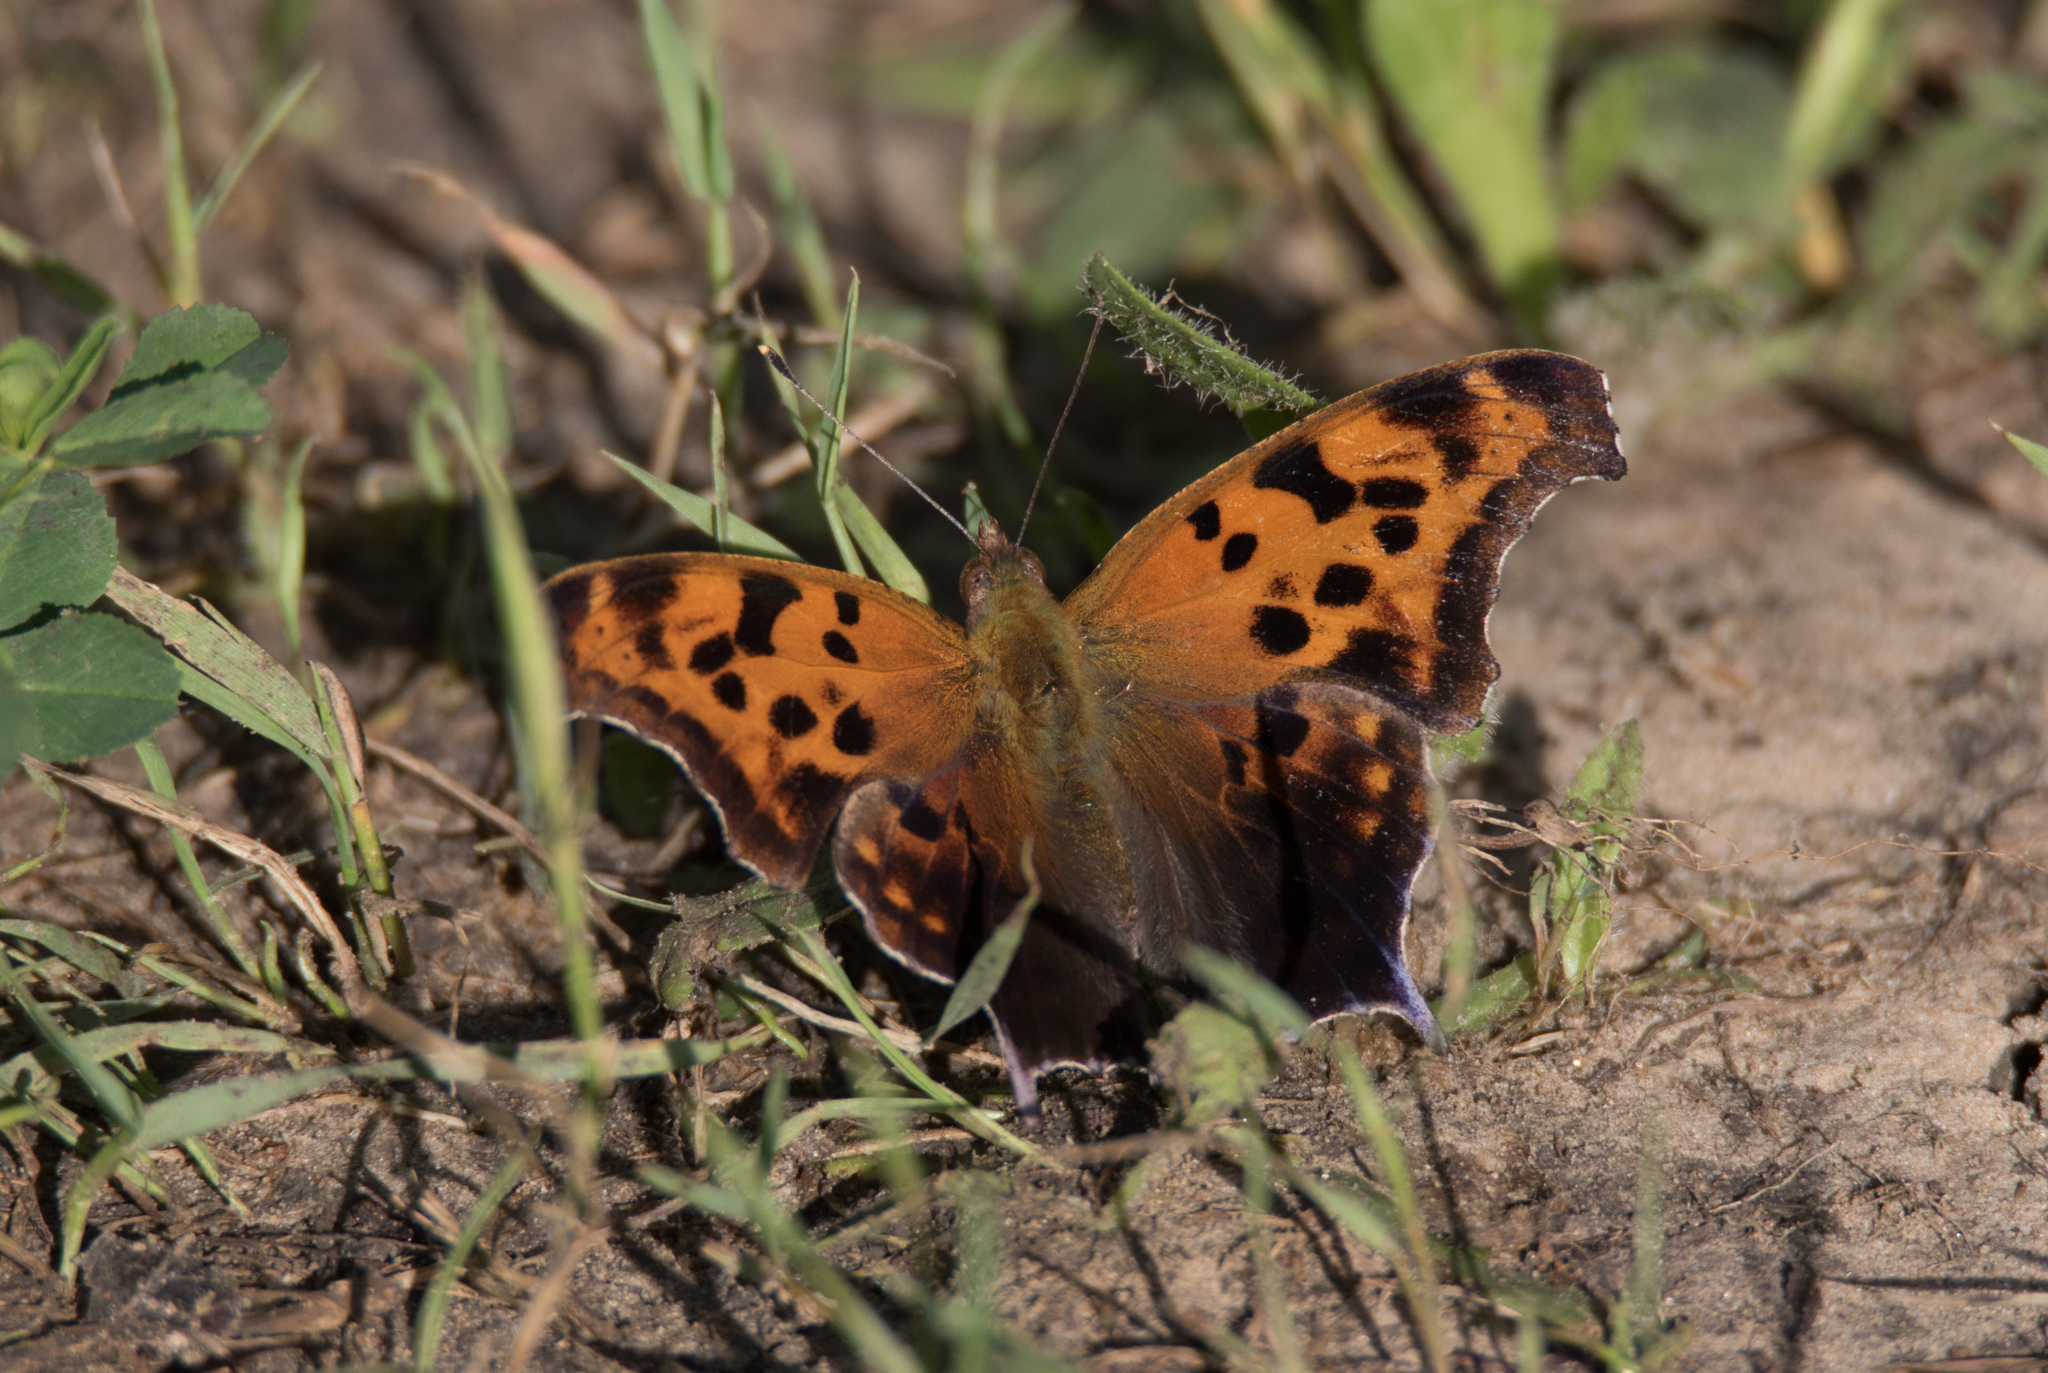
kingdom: Animalia
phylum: Arthropoda
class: Insecta
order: Lepidoptera
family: Nymphalidae
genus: Polygonia
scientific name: Polygonia interrogationis
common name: Question mark
